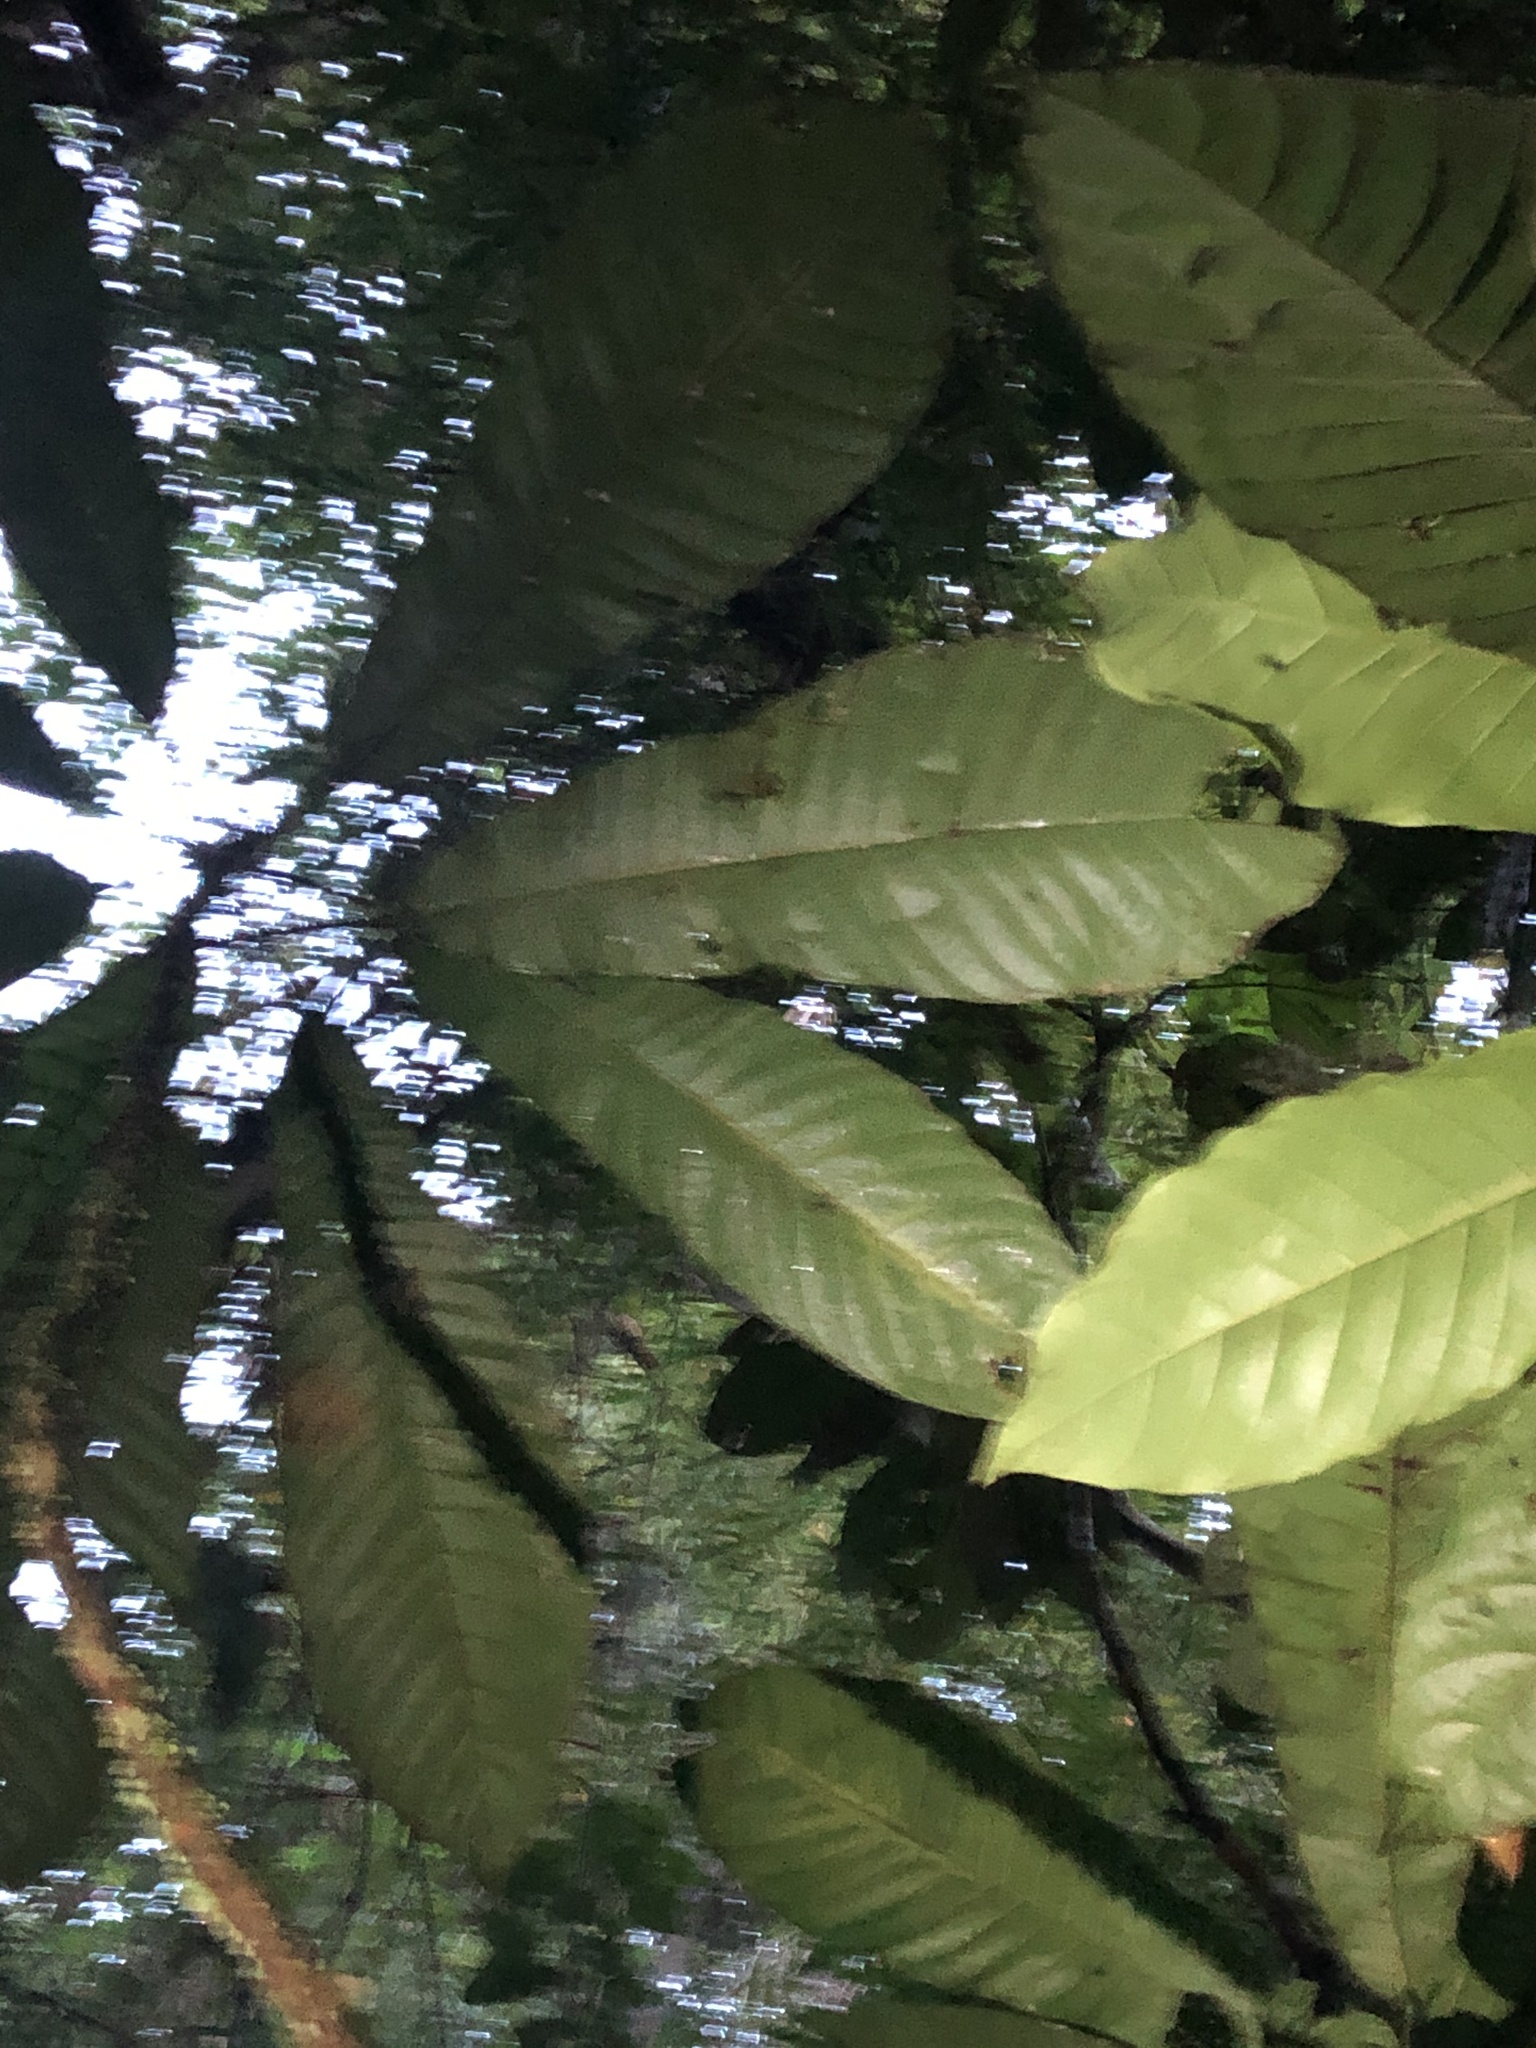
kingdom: Plantae
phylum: Tracheophyta
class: Magnoliopsida
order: Malpighiales
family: Achariaceae
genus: Carpotroche
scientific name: Carpotroche longifolia
